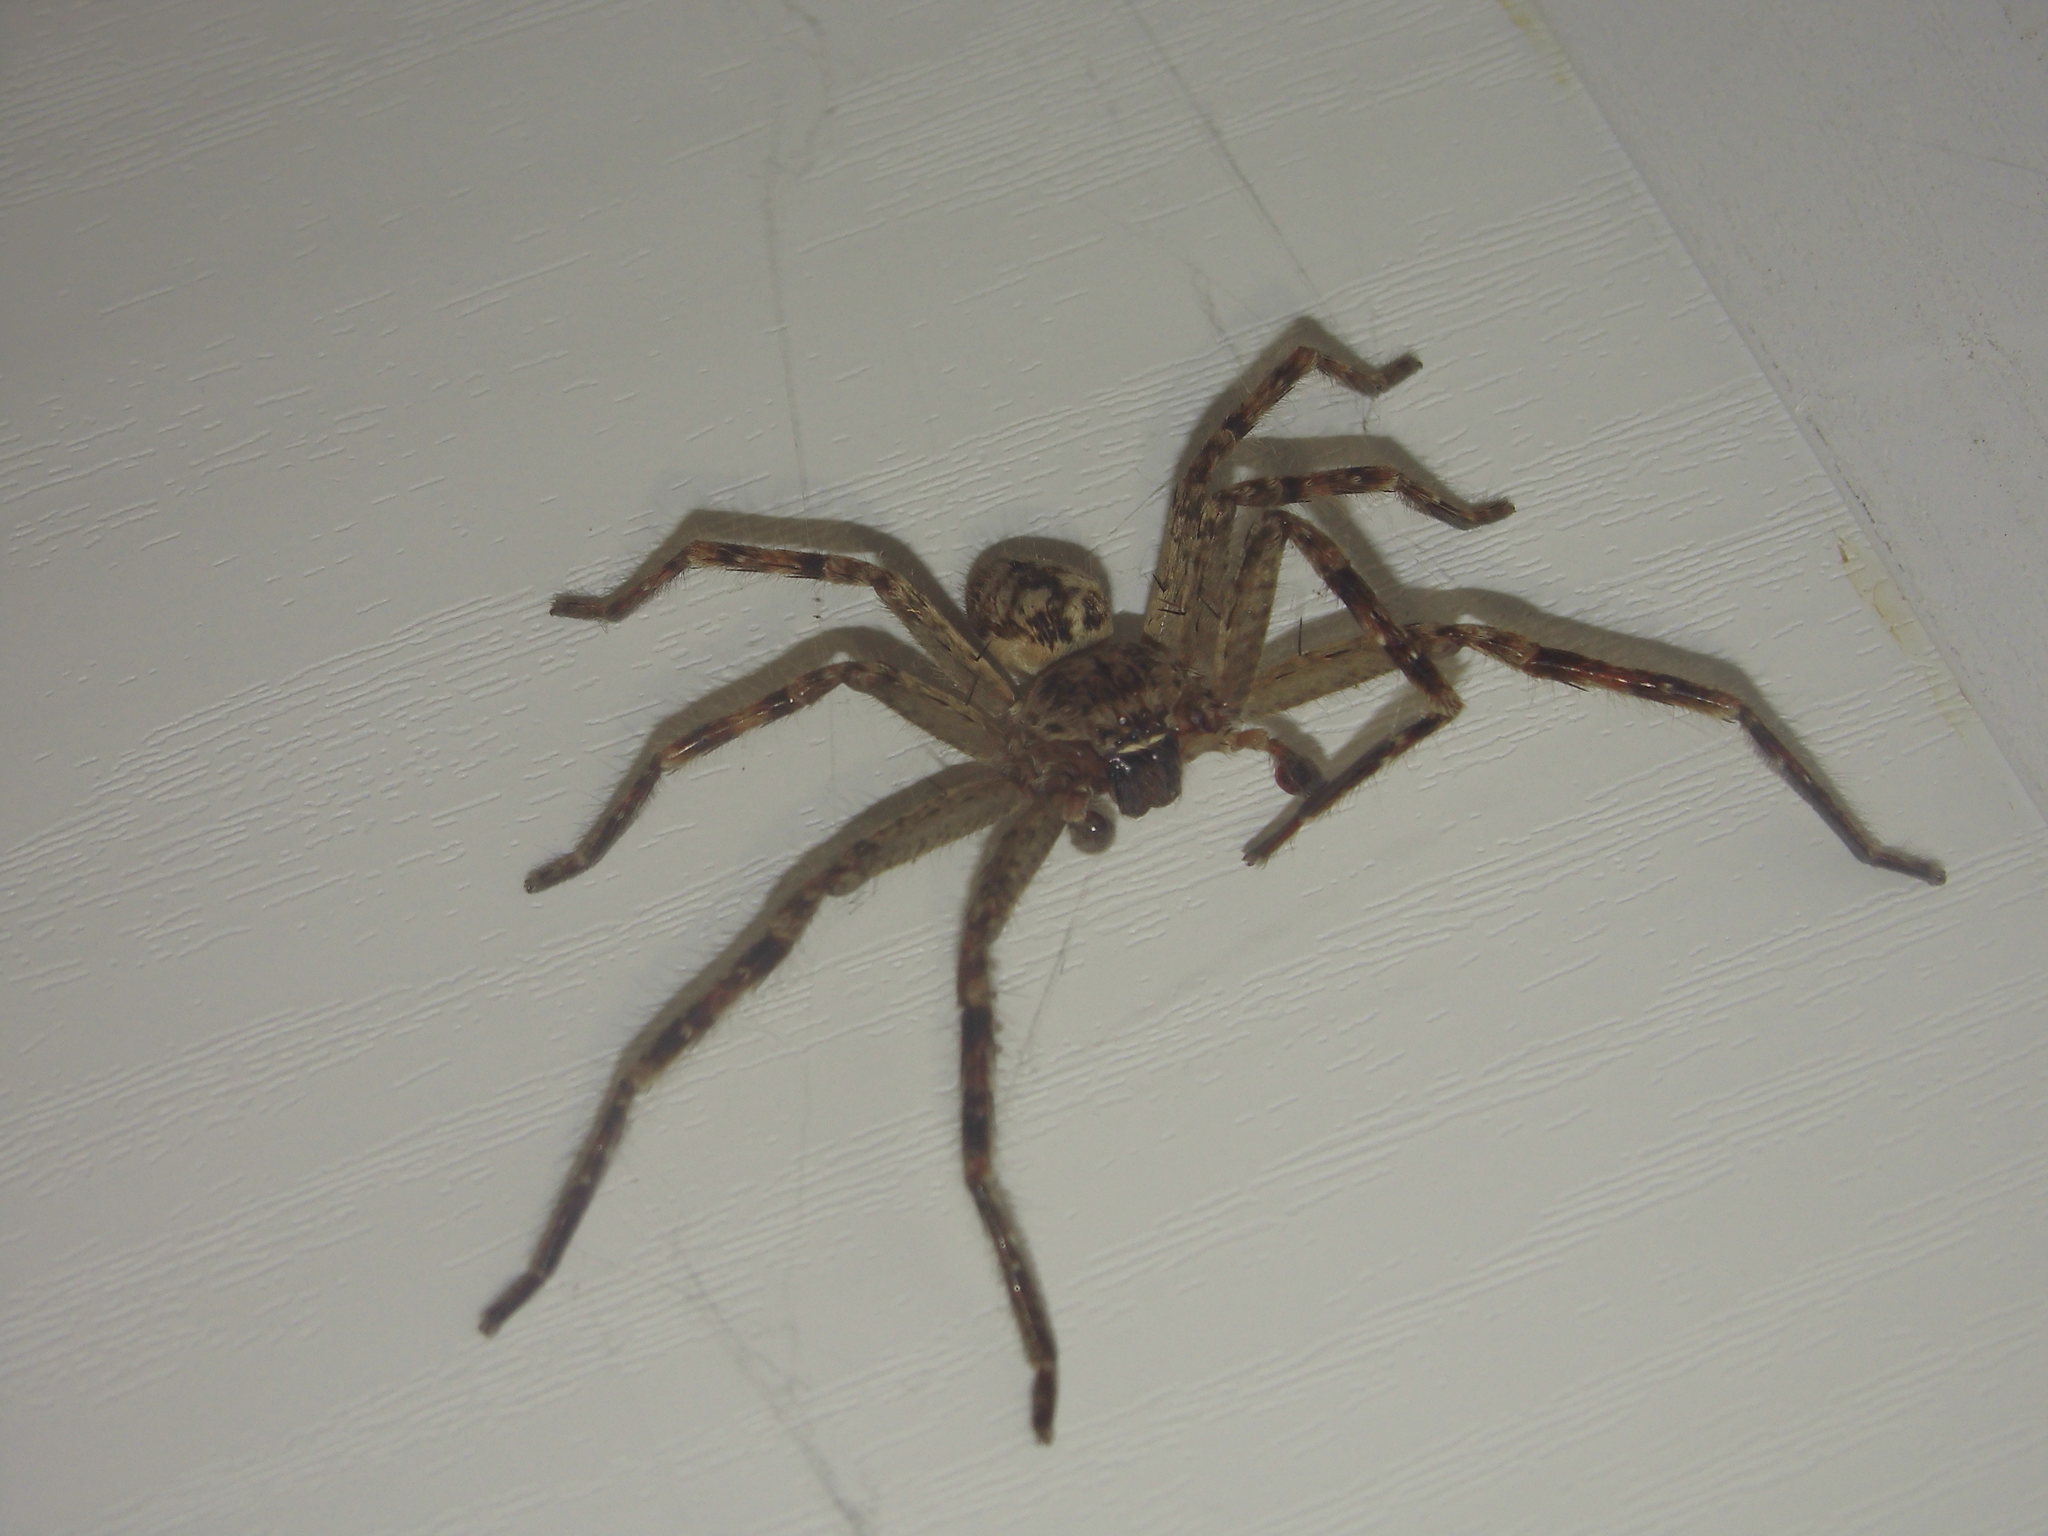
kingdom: Animalia
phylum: Arthropoda
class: Arachnida
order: Araneae
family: Sparassidae
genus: Polybetes
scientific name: Polybetes rapidus
